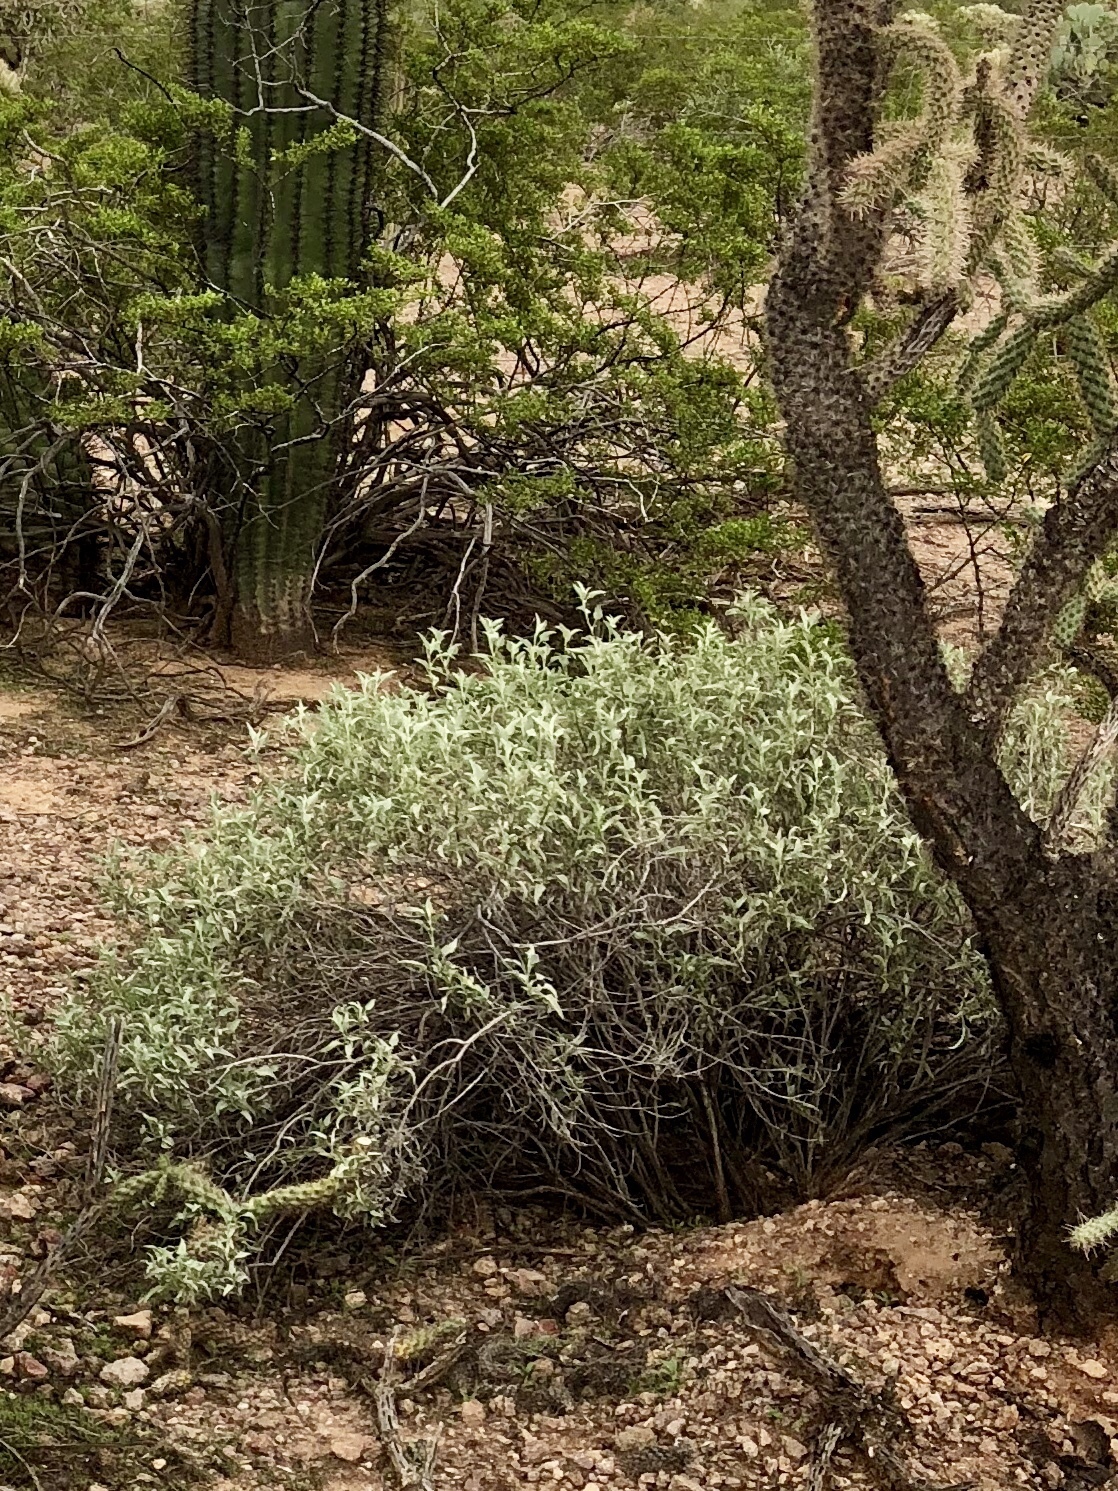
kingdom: Plantae
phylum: Tracheophyta
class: Magnoliopsida
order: Asterales
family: Asteraceae
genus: Ambrosia
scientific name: Ambrosia deltoidea
